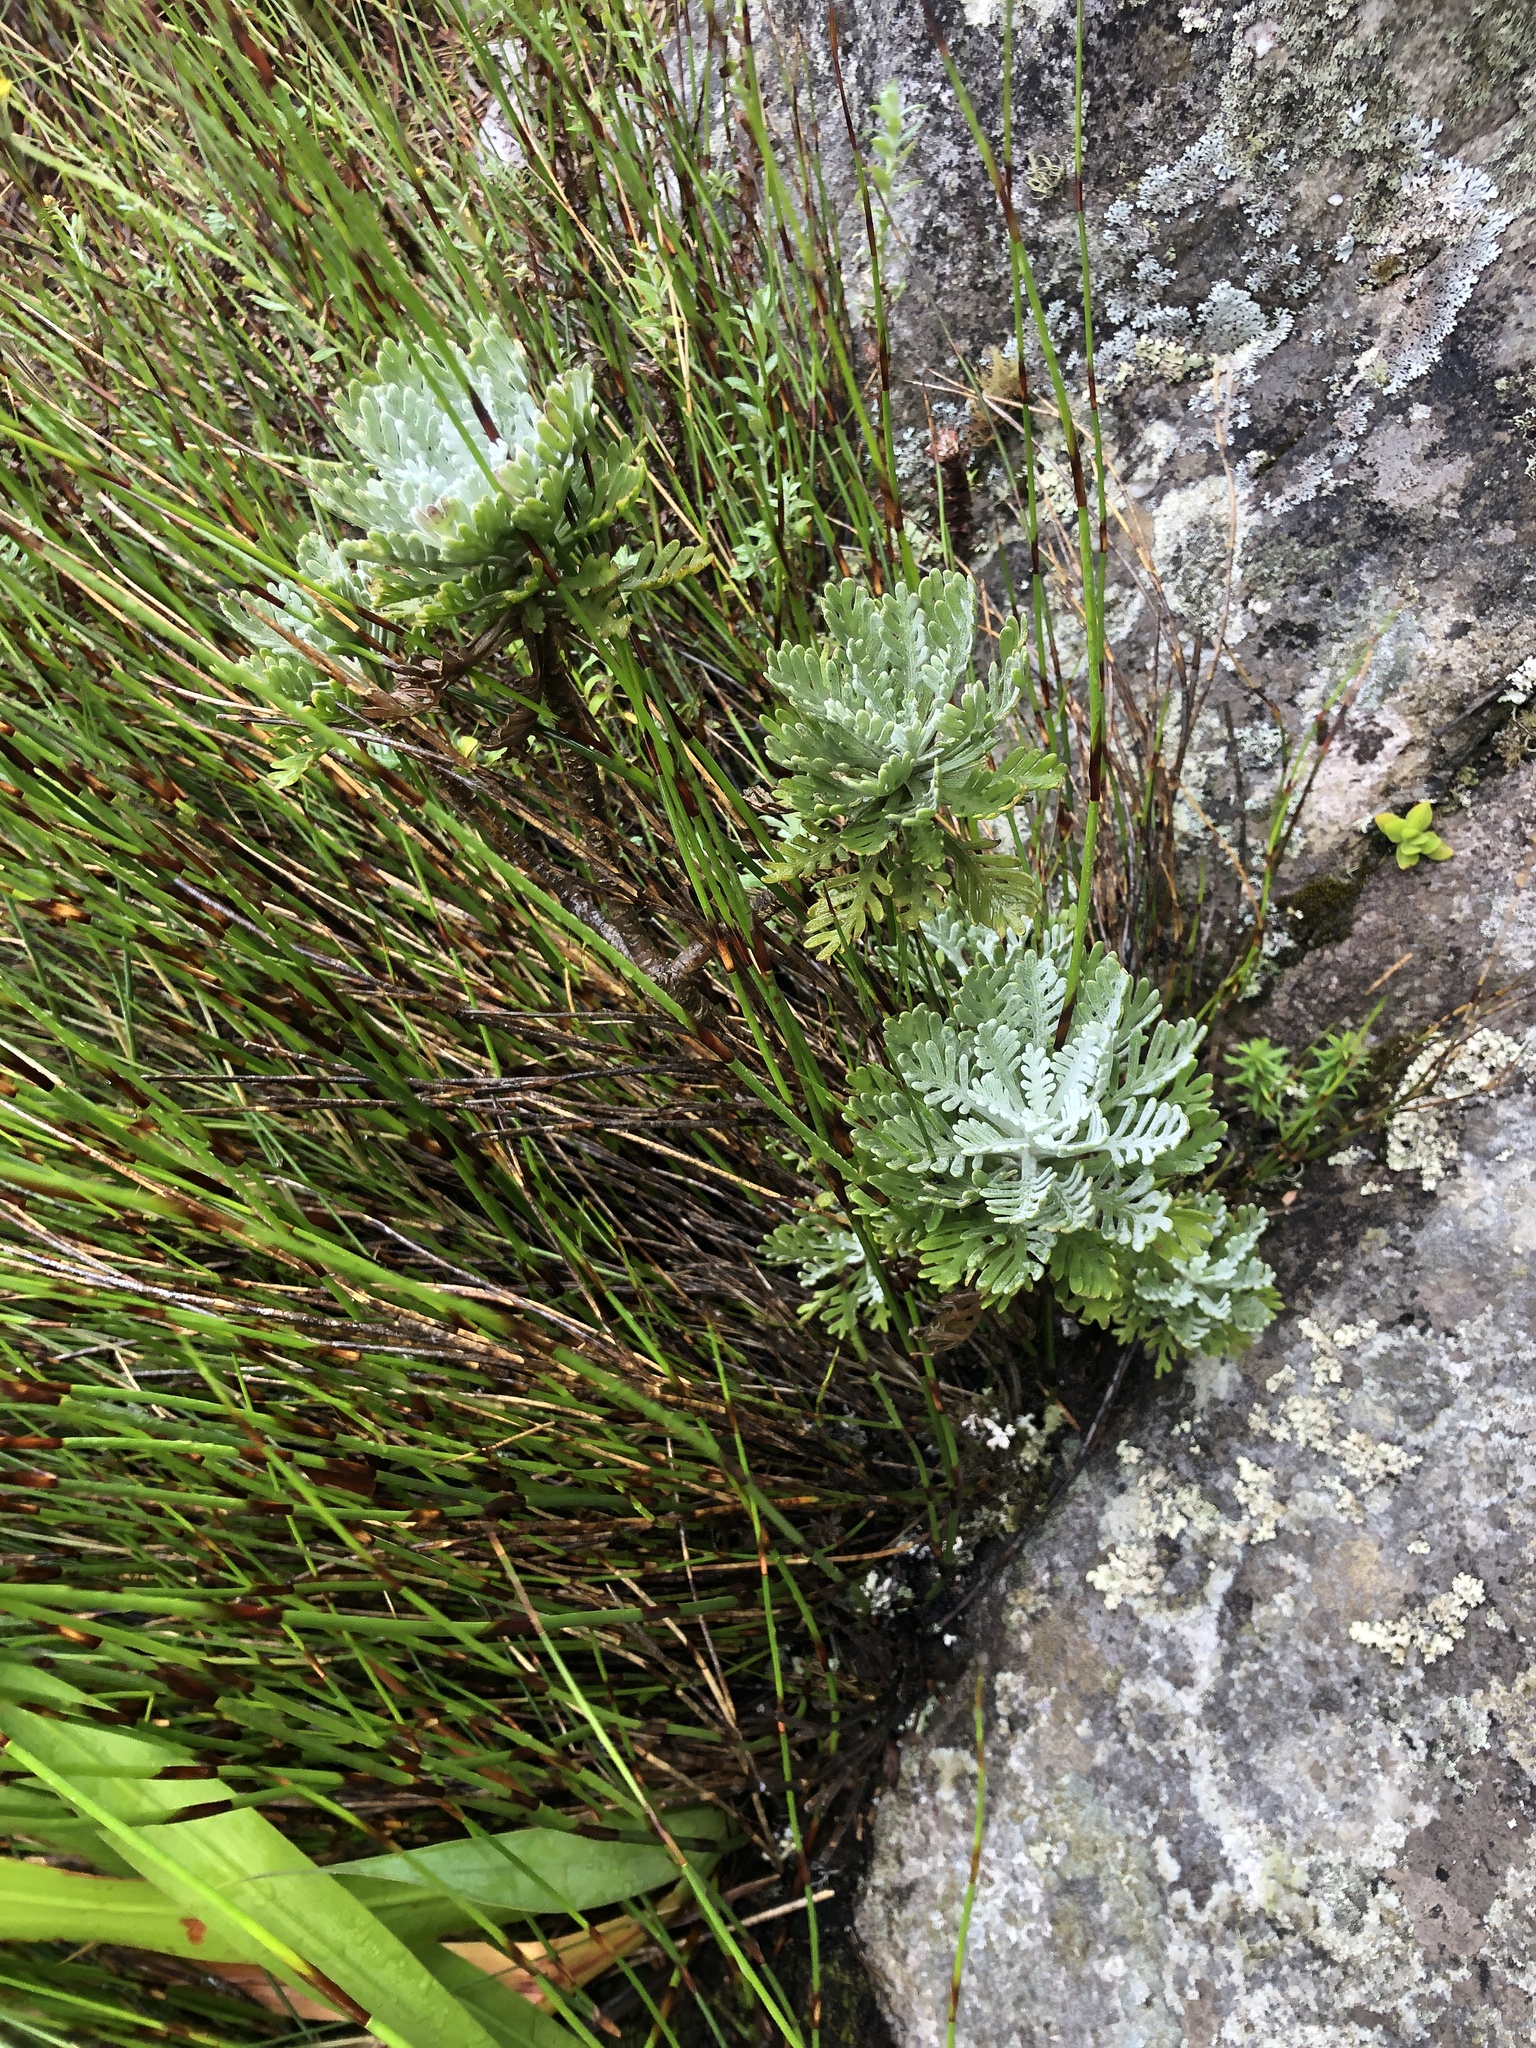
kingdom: Plantae
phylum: Tracheophyta
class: Magnoliopsida
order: Asterales
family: Asteraceae
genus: Euryops
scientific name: Euryops pectinatus
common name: Gray-leaf euryops
